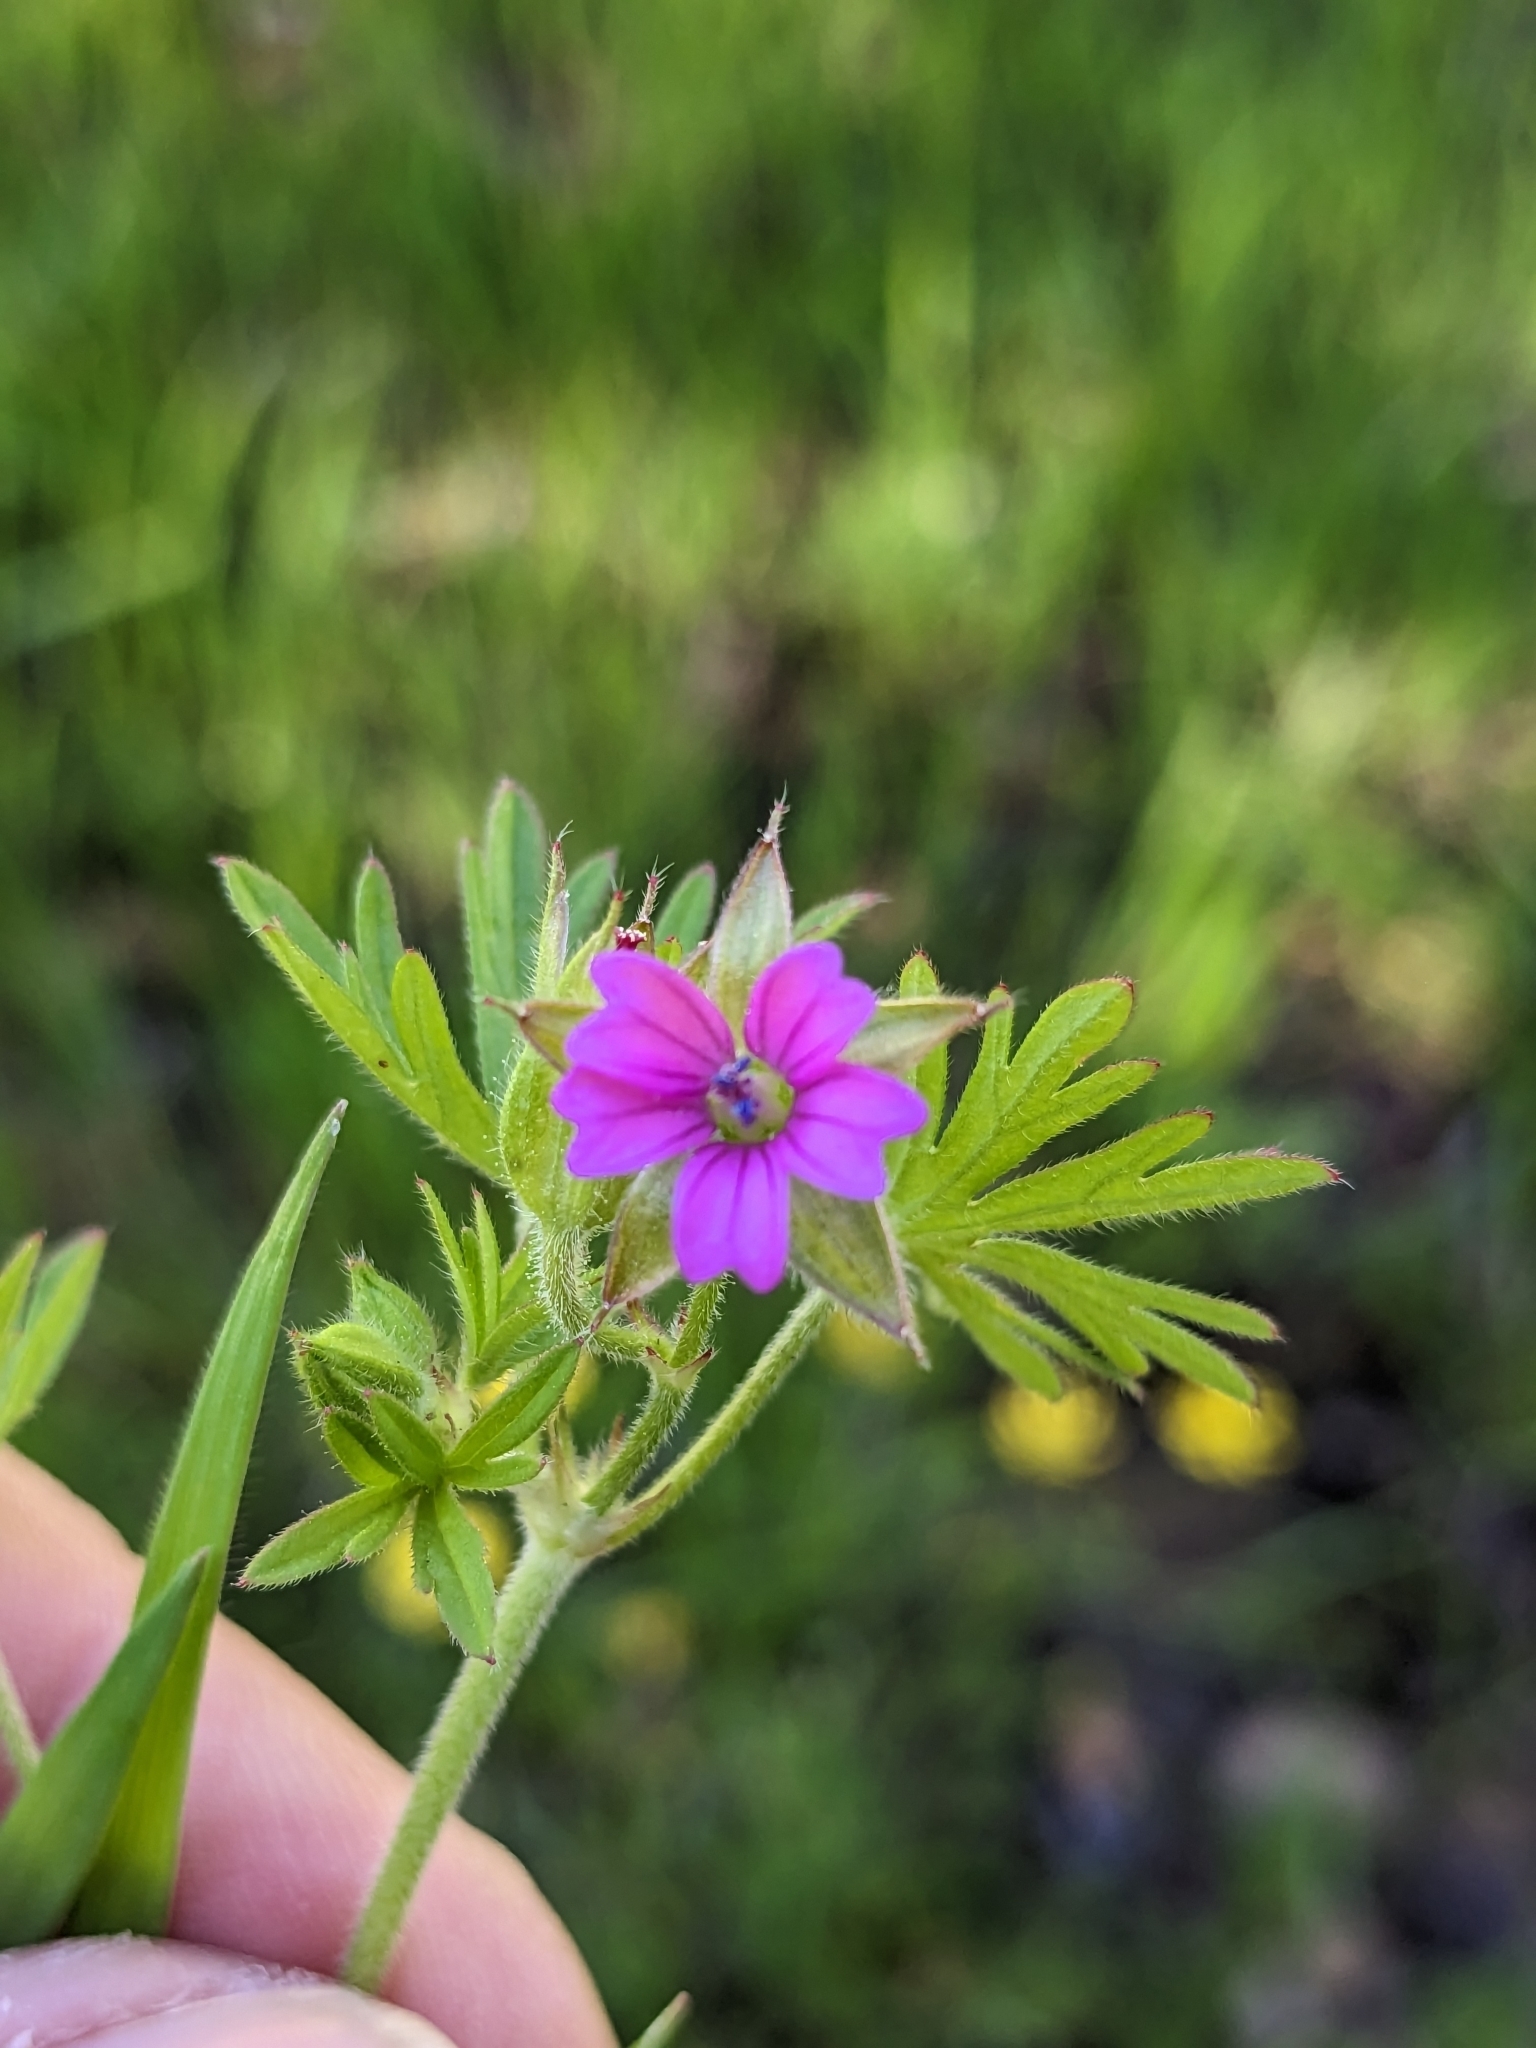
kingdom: Plantae
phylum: Tracheophyta
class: Magnoliopsida
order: Geraniales
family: Geraniaceae
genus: Geranium
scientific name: Geranium dissectum
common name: Cut-leaved crane's-bill
